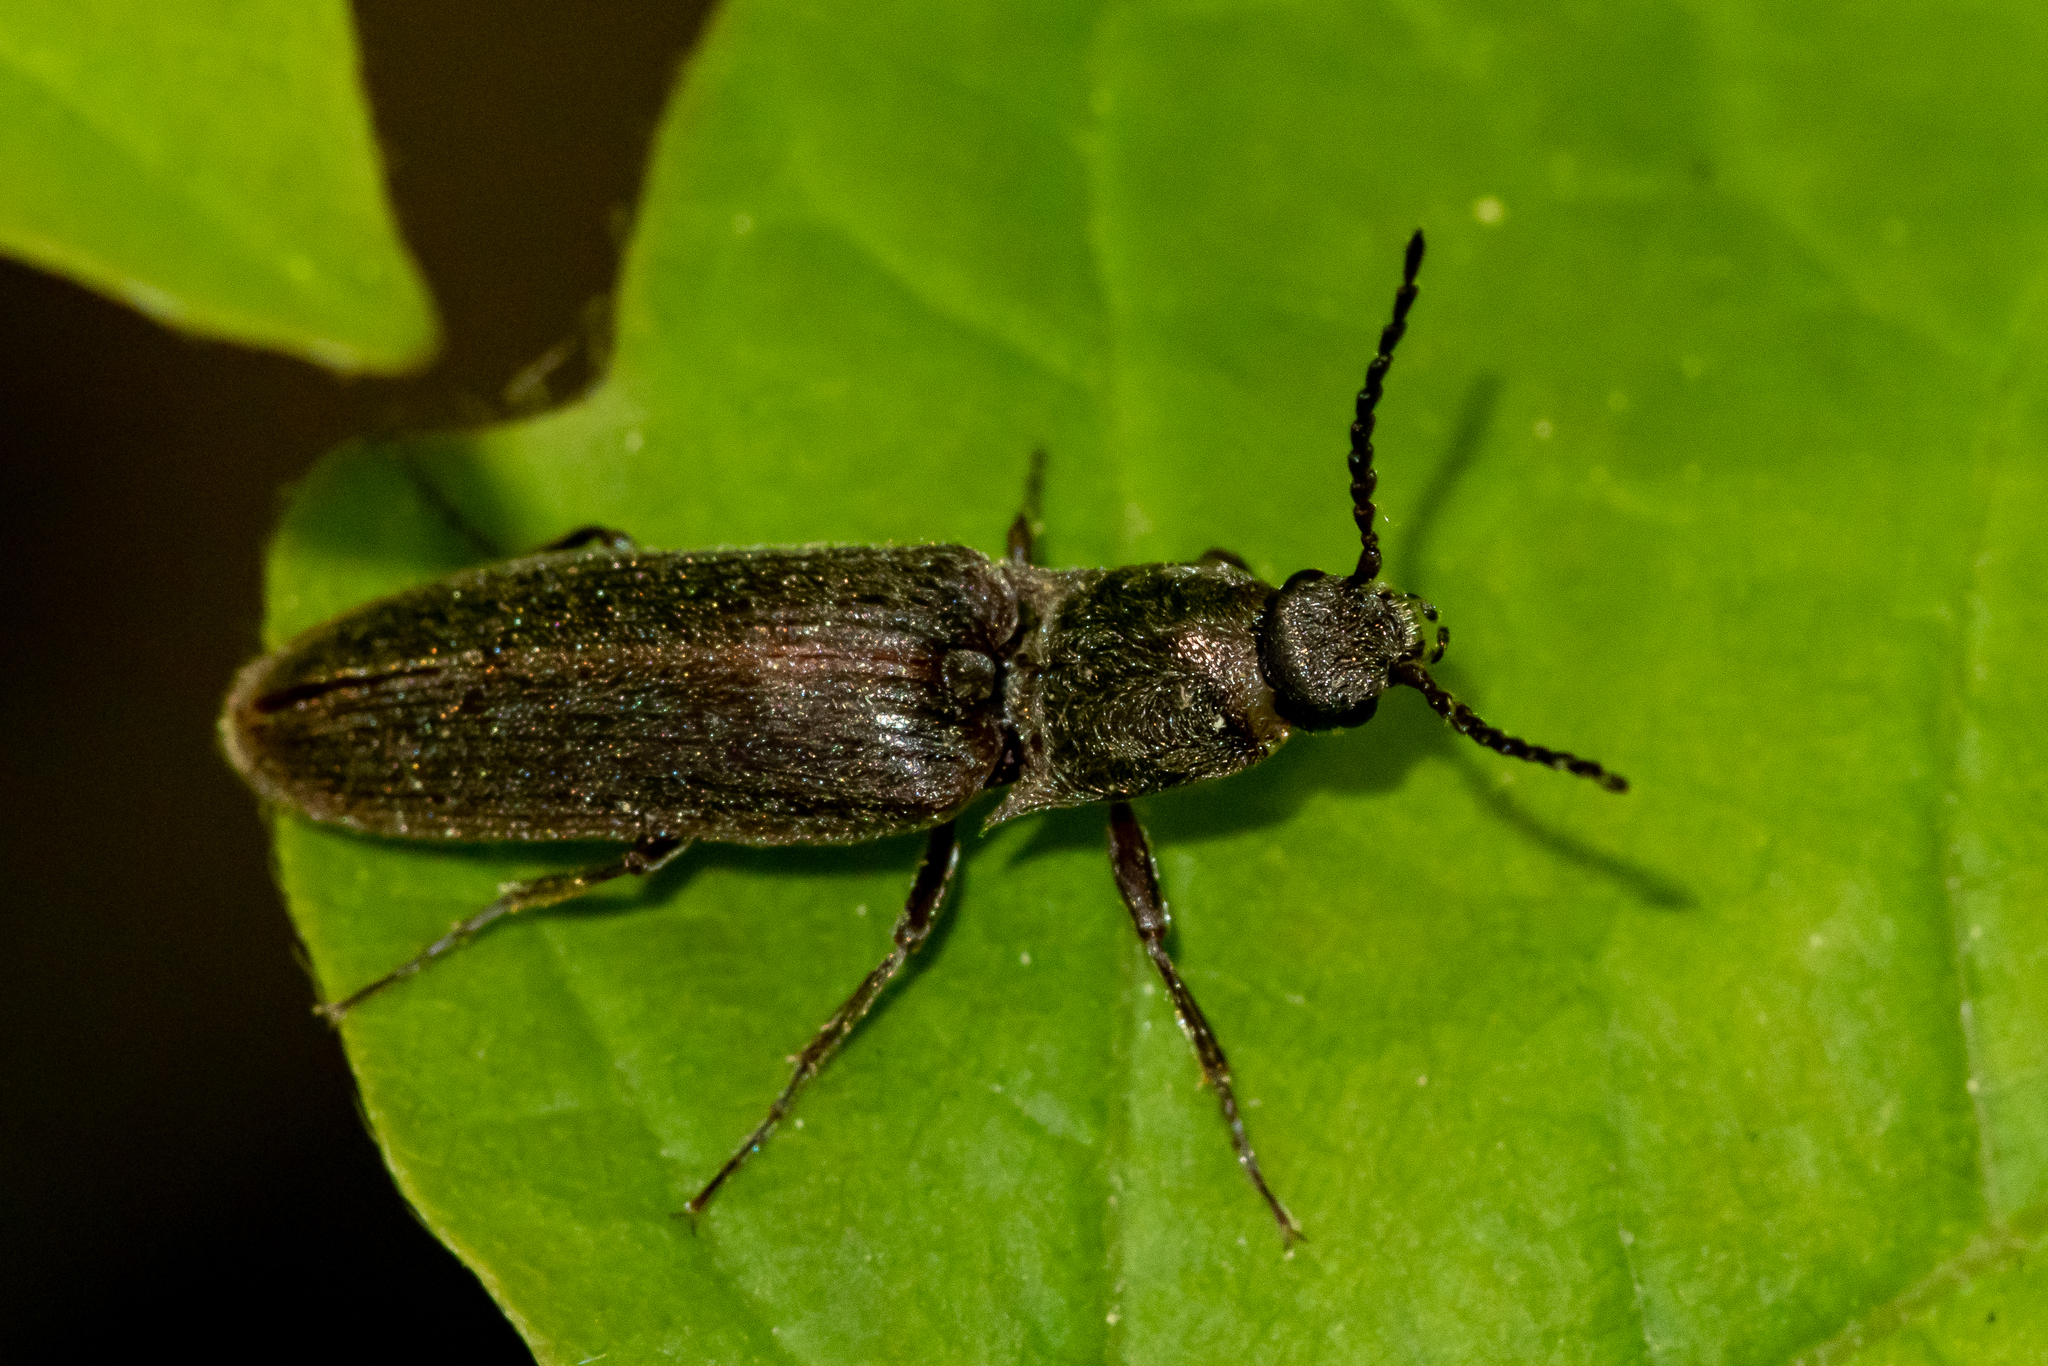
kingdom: Animalia
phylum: Arthropoda
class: Insecta
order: Coleoptera
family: Elateridae
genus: Sylvanelater
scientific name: Sylvanelater cylindriformis
